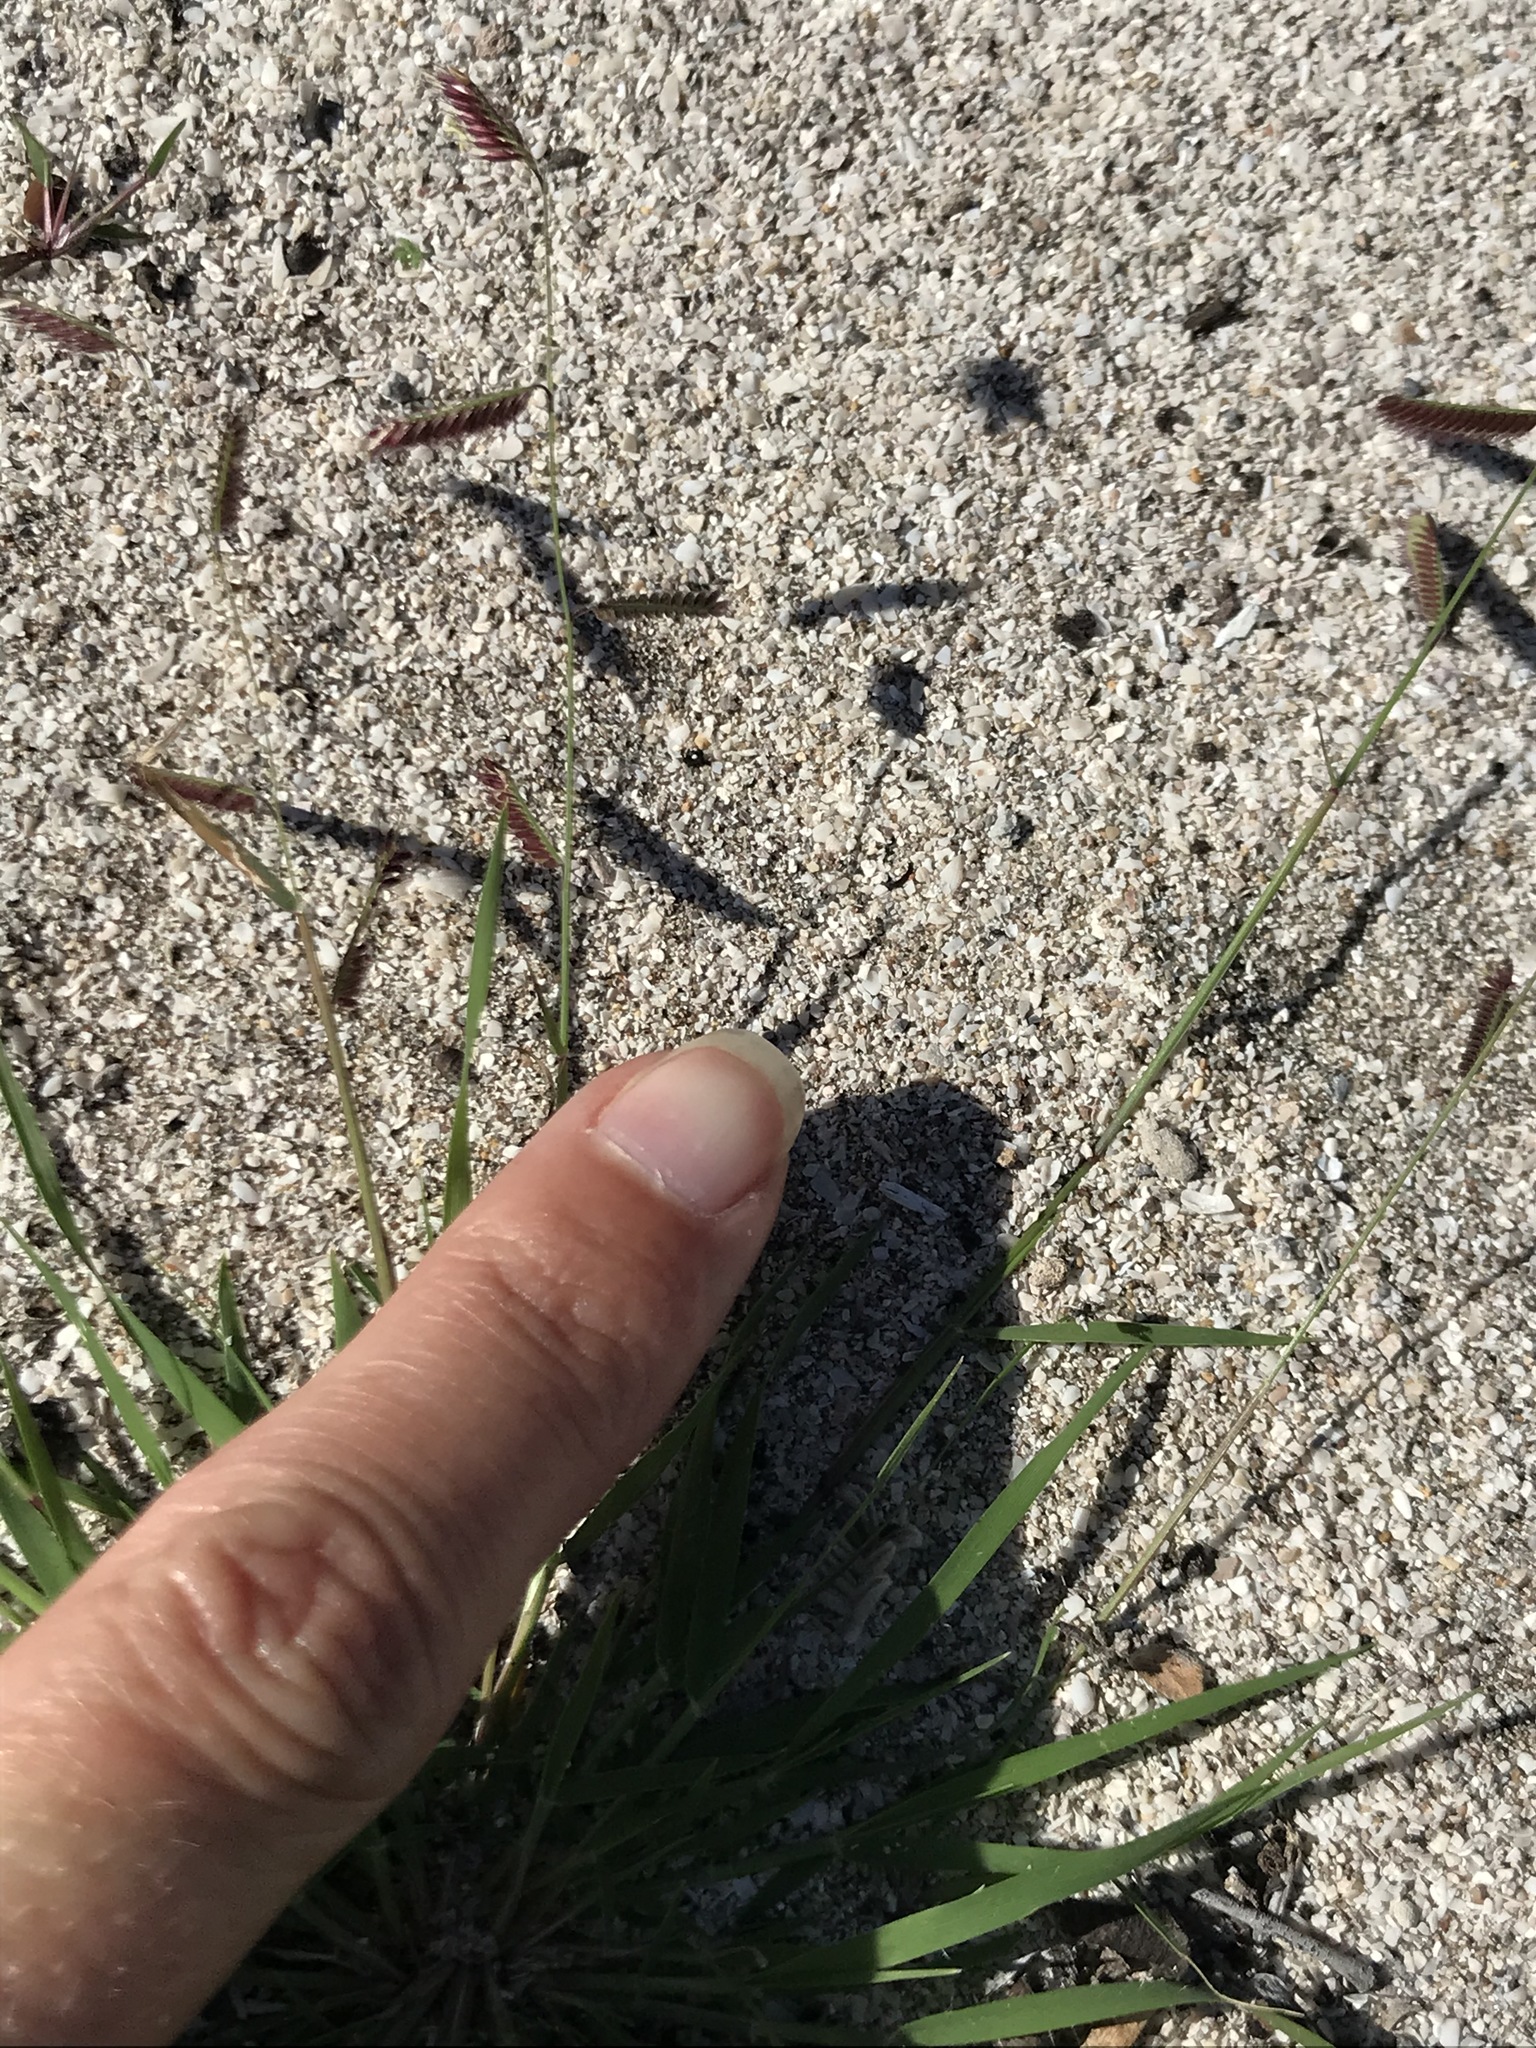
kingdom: Plantae
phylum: Tracheophyta
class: Liliopsida
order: Poales
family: Poaceae
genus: Bouteloua
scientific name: Bouteloua barbata
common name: Six-weeks grama
